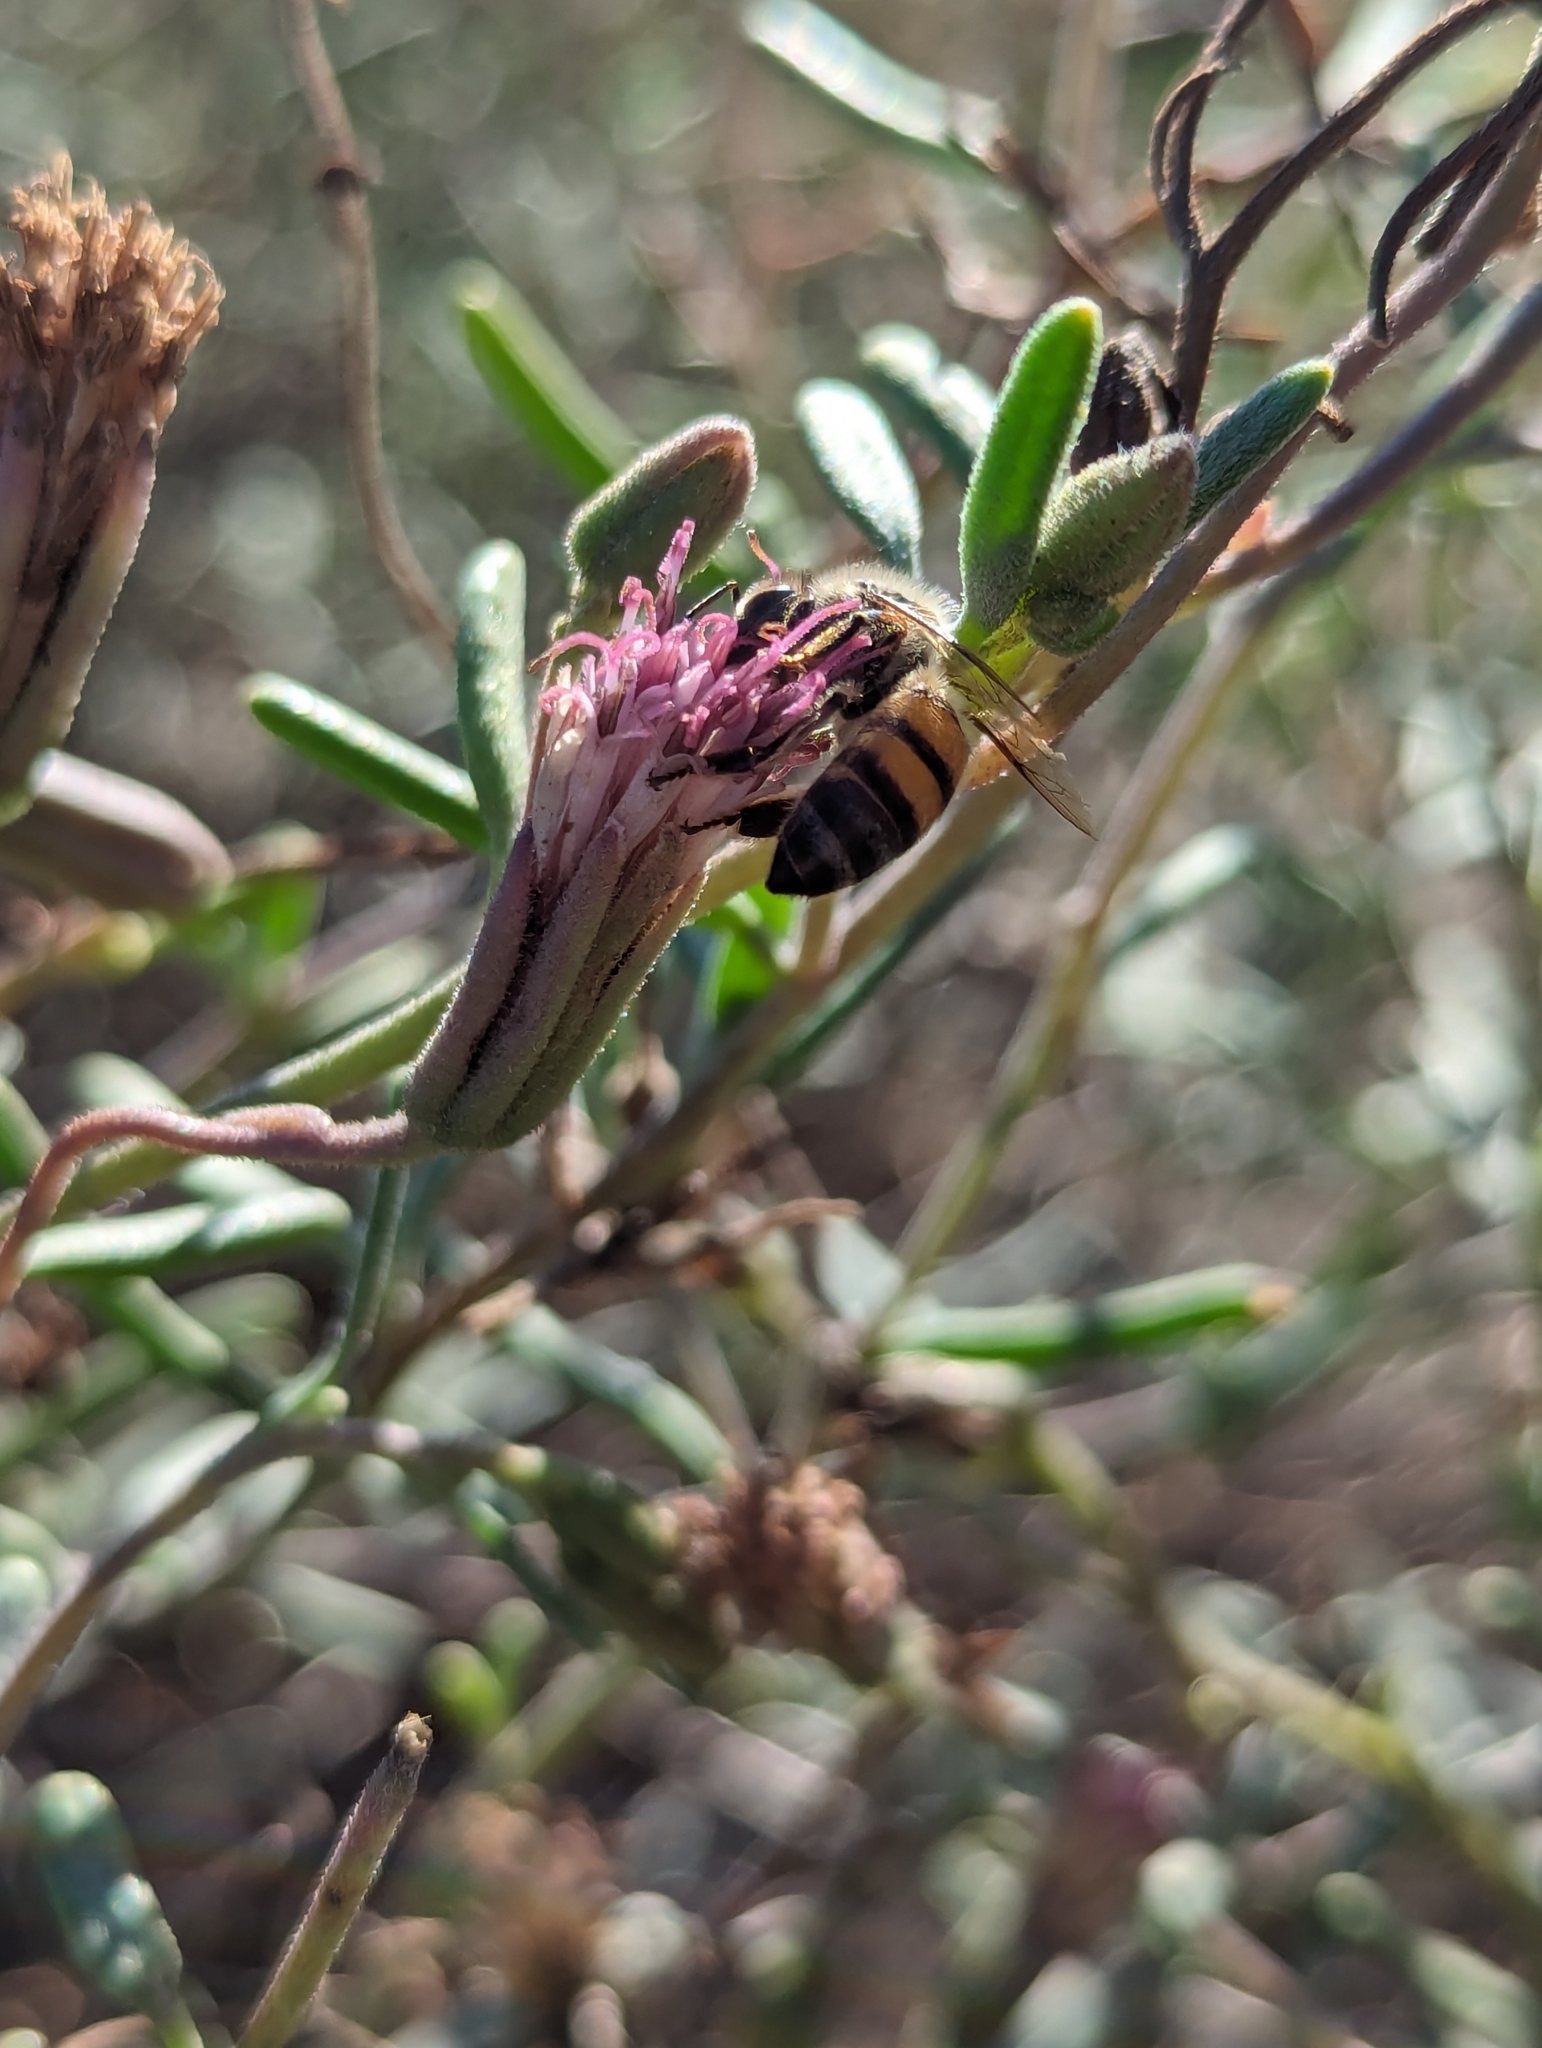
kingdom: Animalia
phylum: Arthropoda
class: Insecta
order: Hymenoptera
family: Apidae
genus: Apis
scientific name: Apis mellifera
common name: Honey bee
